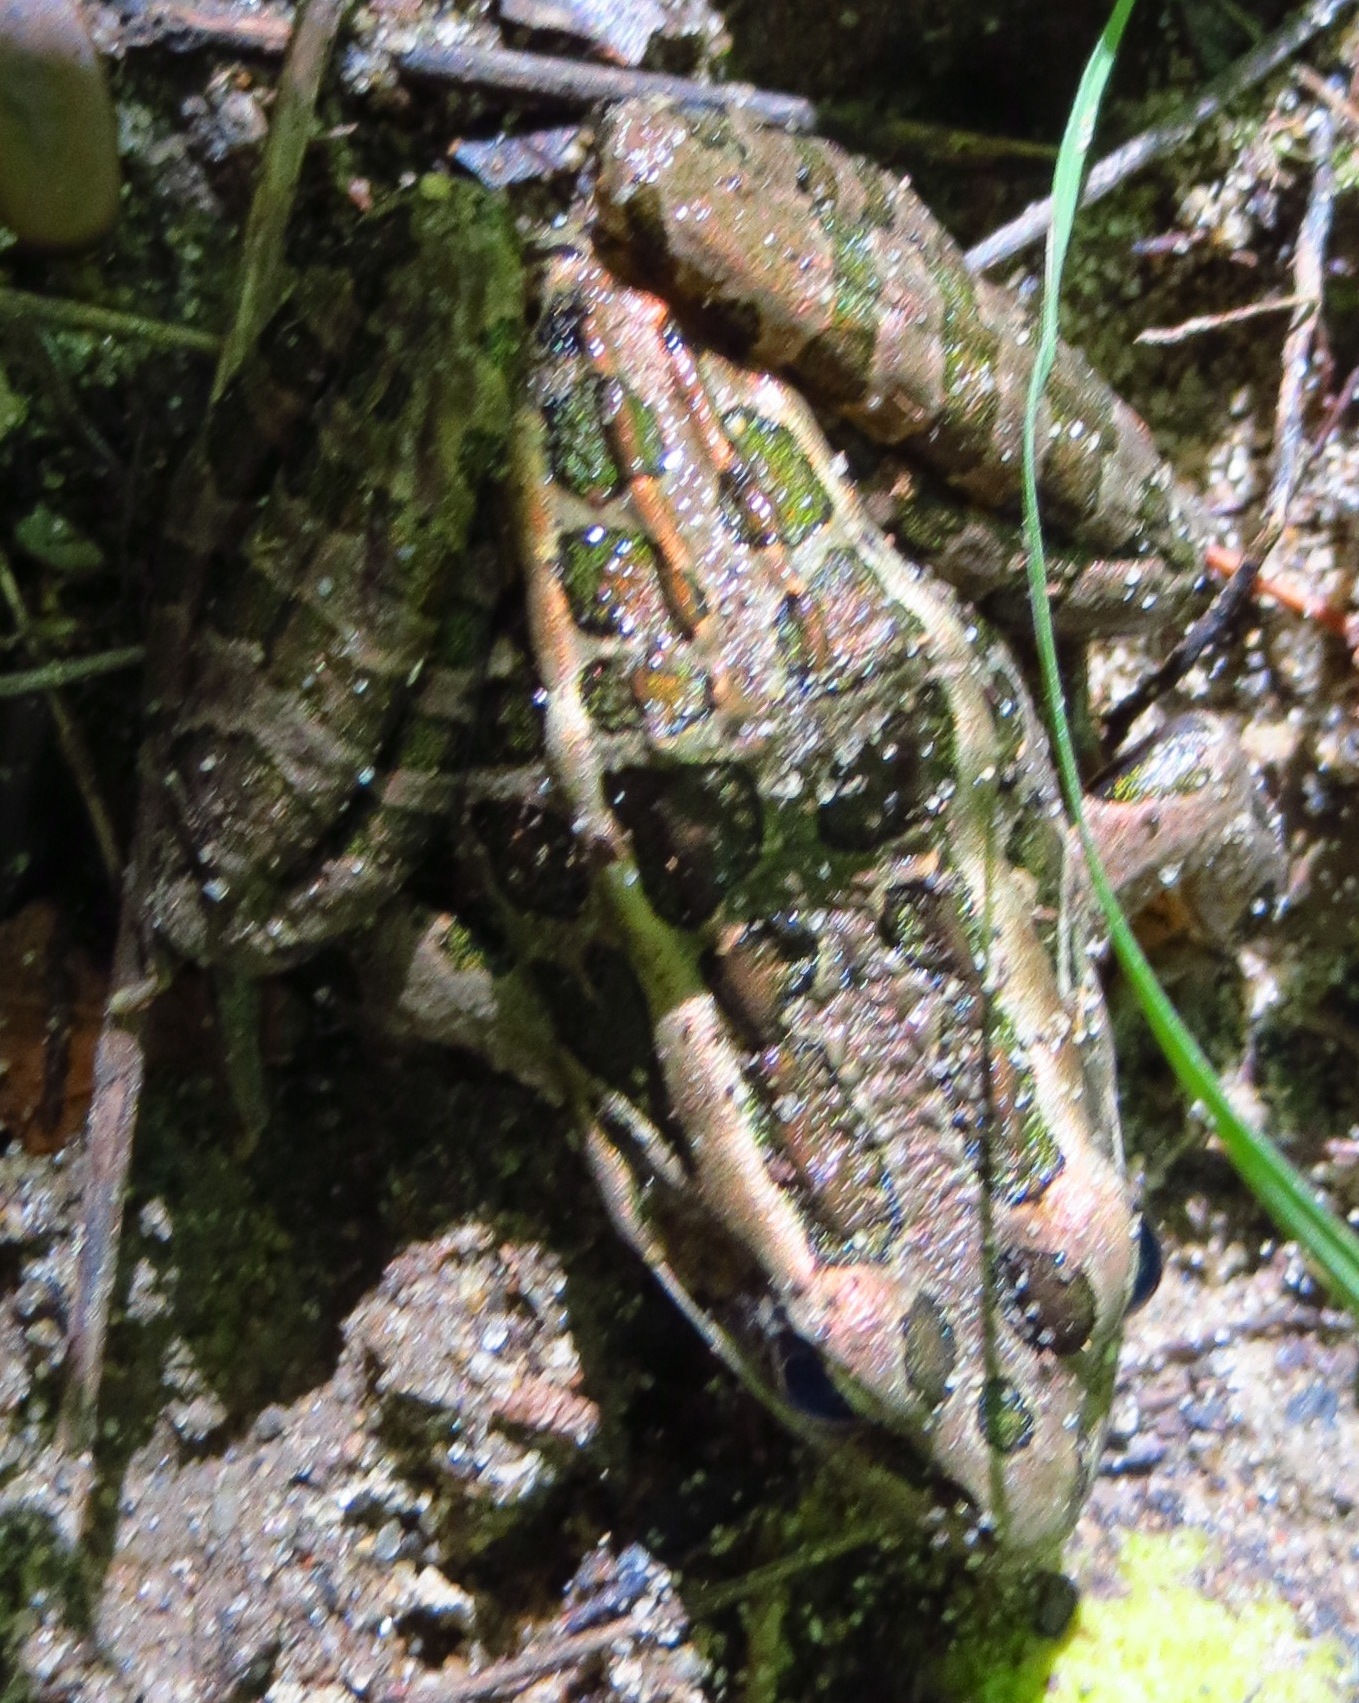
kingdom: Animalia
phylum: Chordata
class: Amphibia
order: Anura
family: Ranidae
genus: Lithobates
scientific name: Lithobates palustris
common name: Pickerel frog
